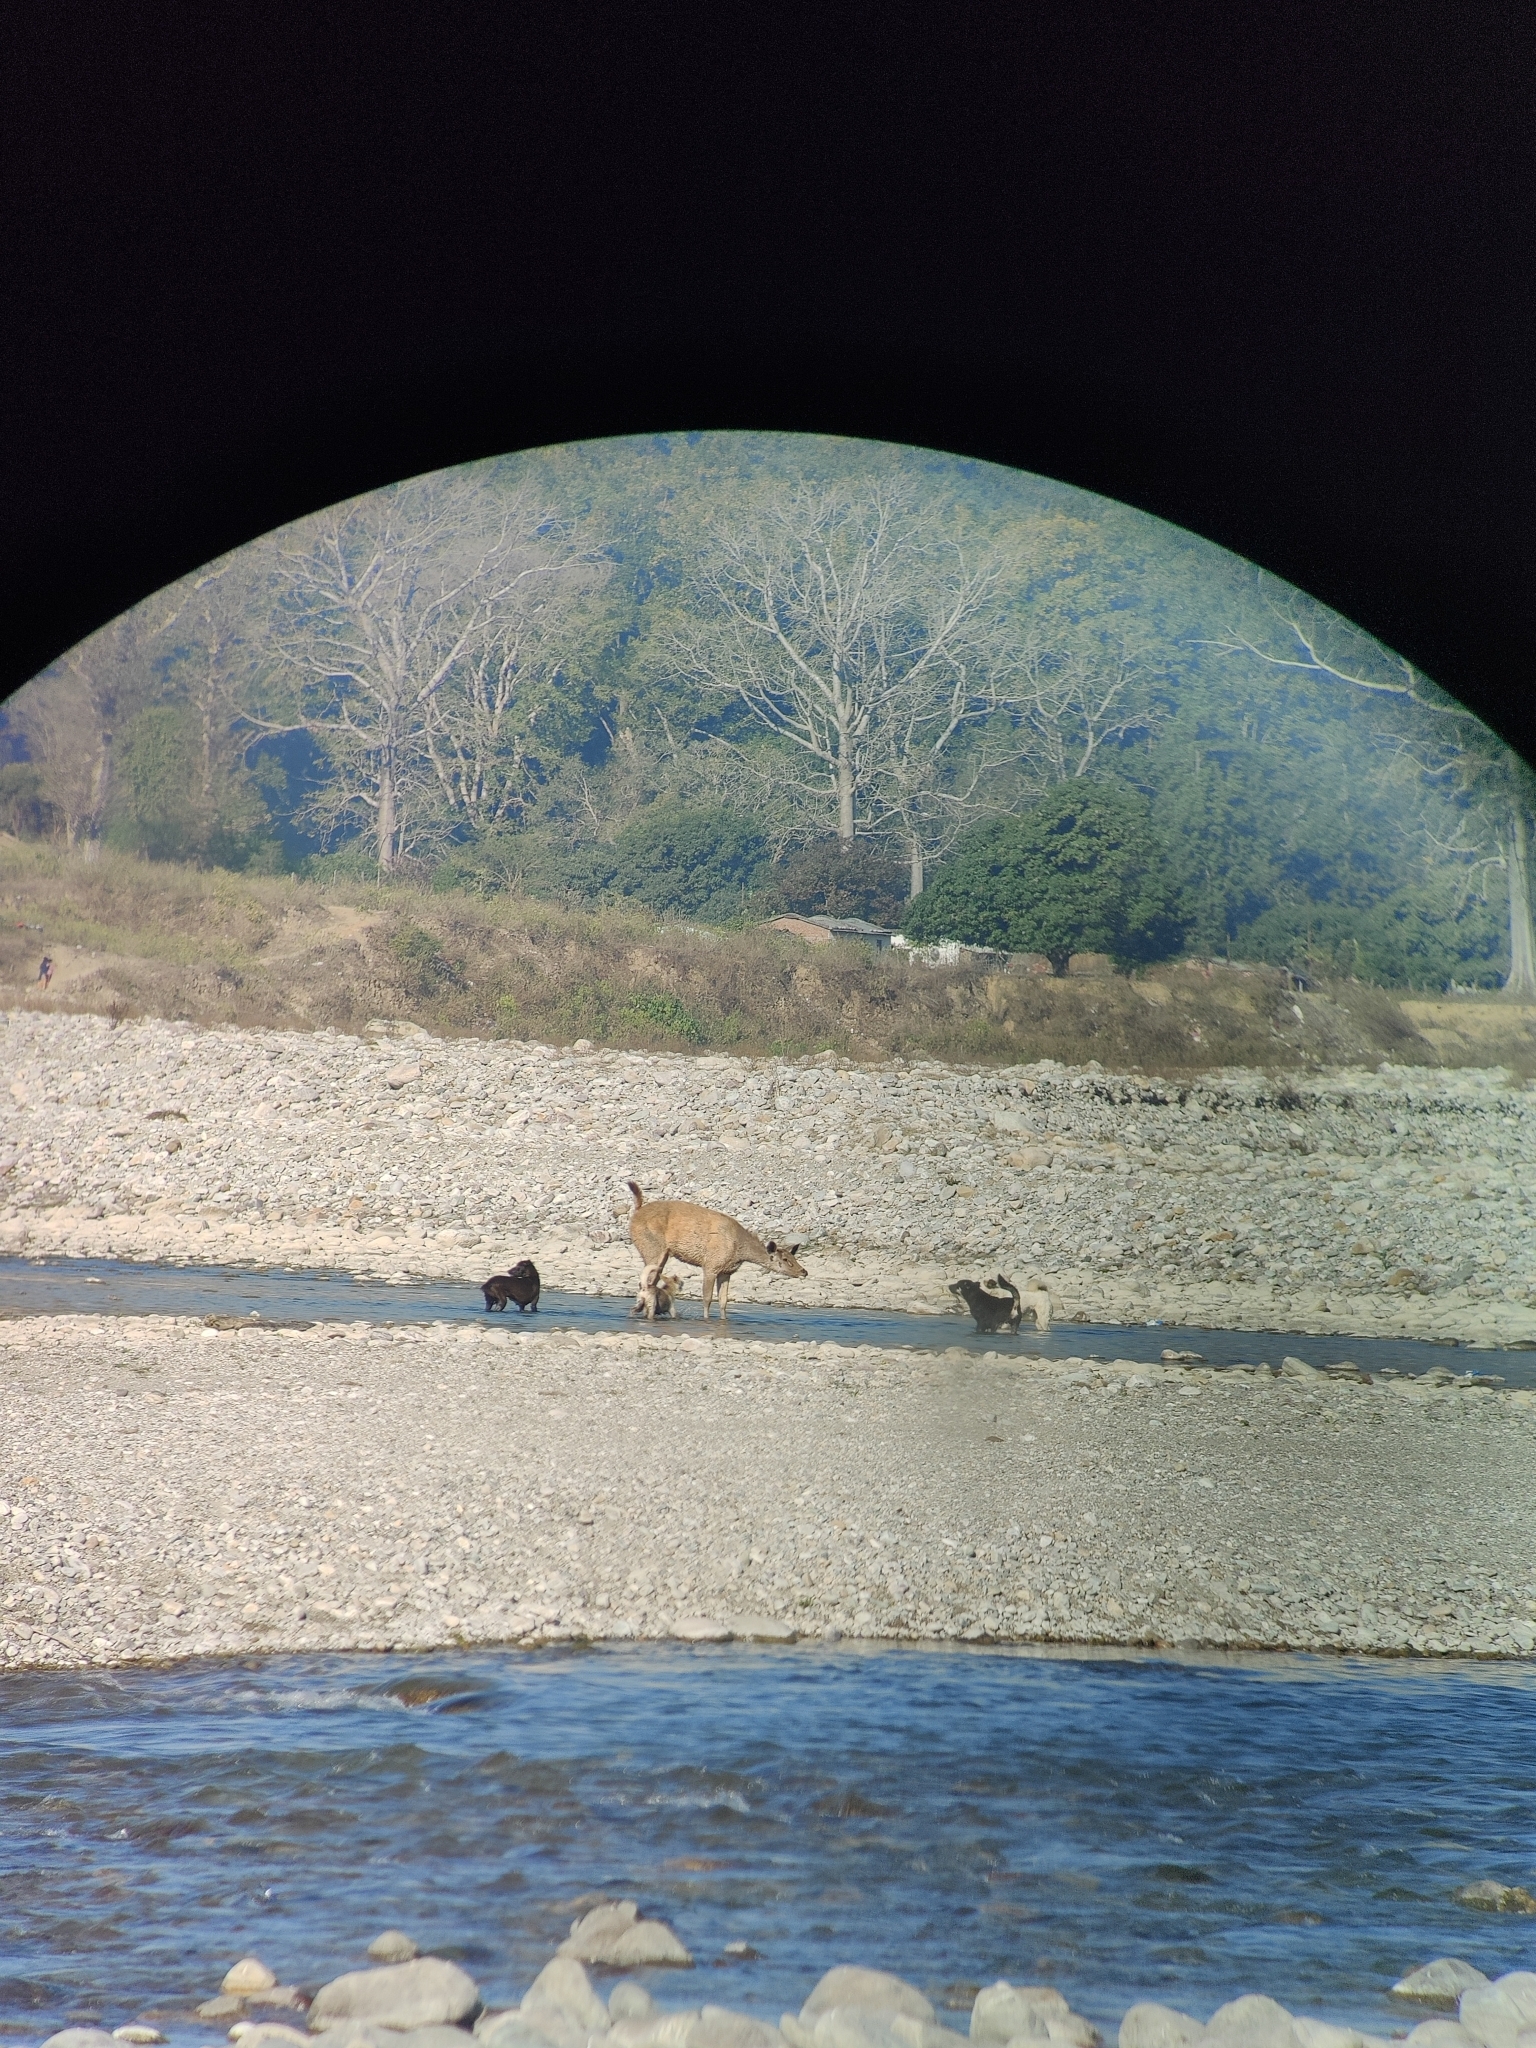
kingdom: Animalia
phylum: Chordata
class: Mammalia
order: Artiodactyla
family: Cervidae
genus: Rusa
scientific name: Rusa unicolor
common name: Sambar
